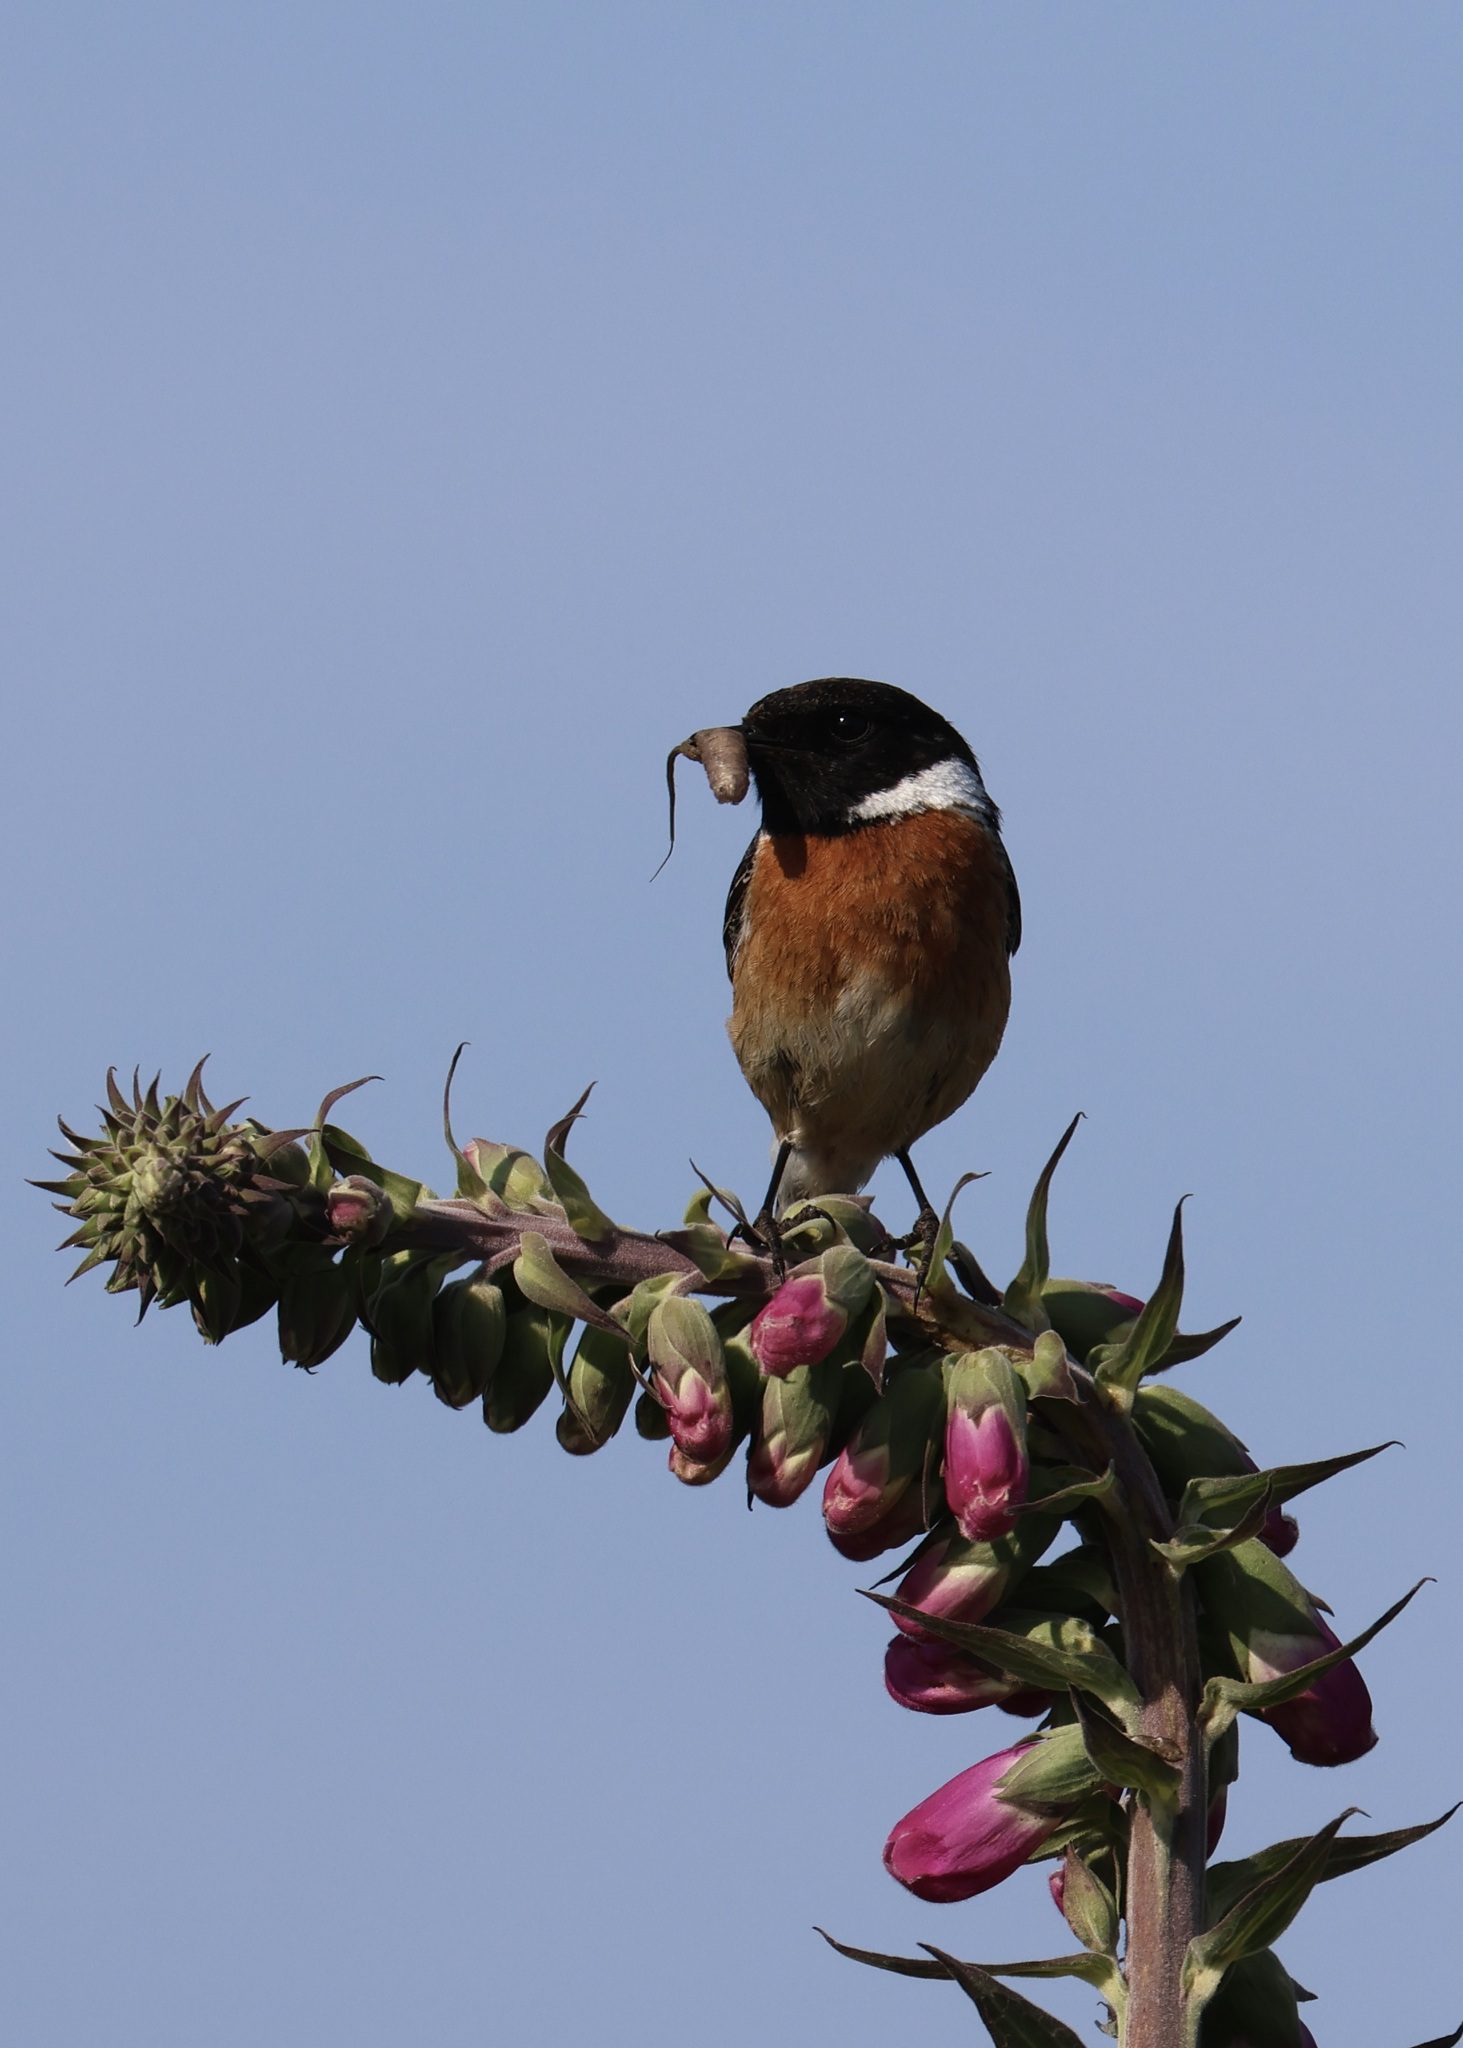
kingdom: Animalia
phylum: Chordata
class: Aves
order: Passeriformes
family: Muscicapidae
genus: Saxicola
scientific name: Saxicola rubicola
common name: European stonechat
